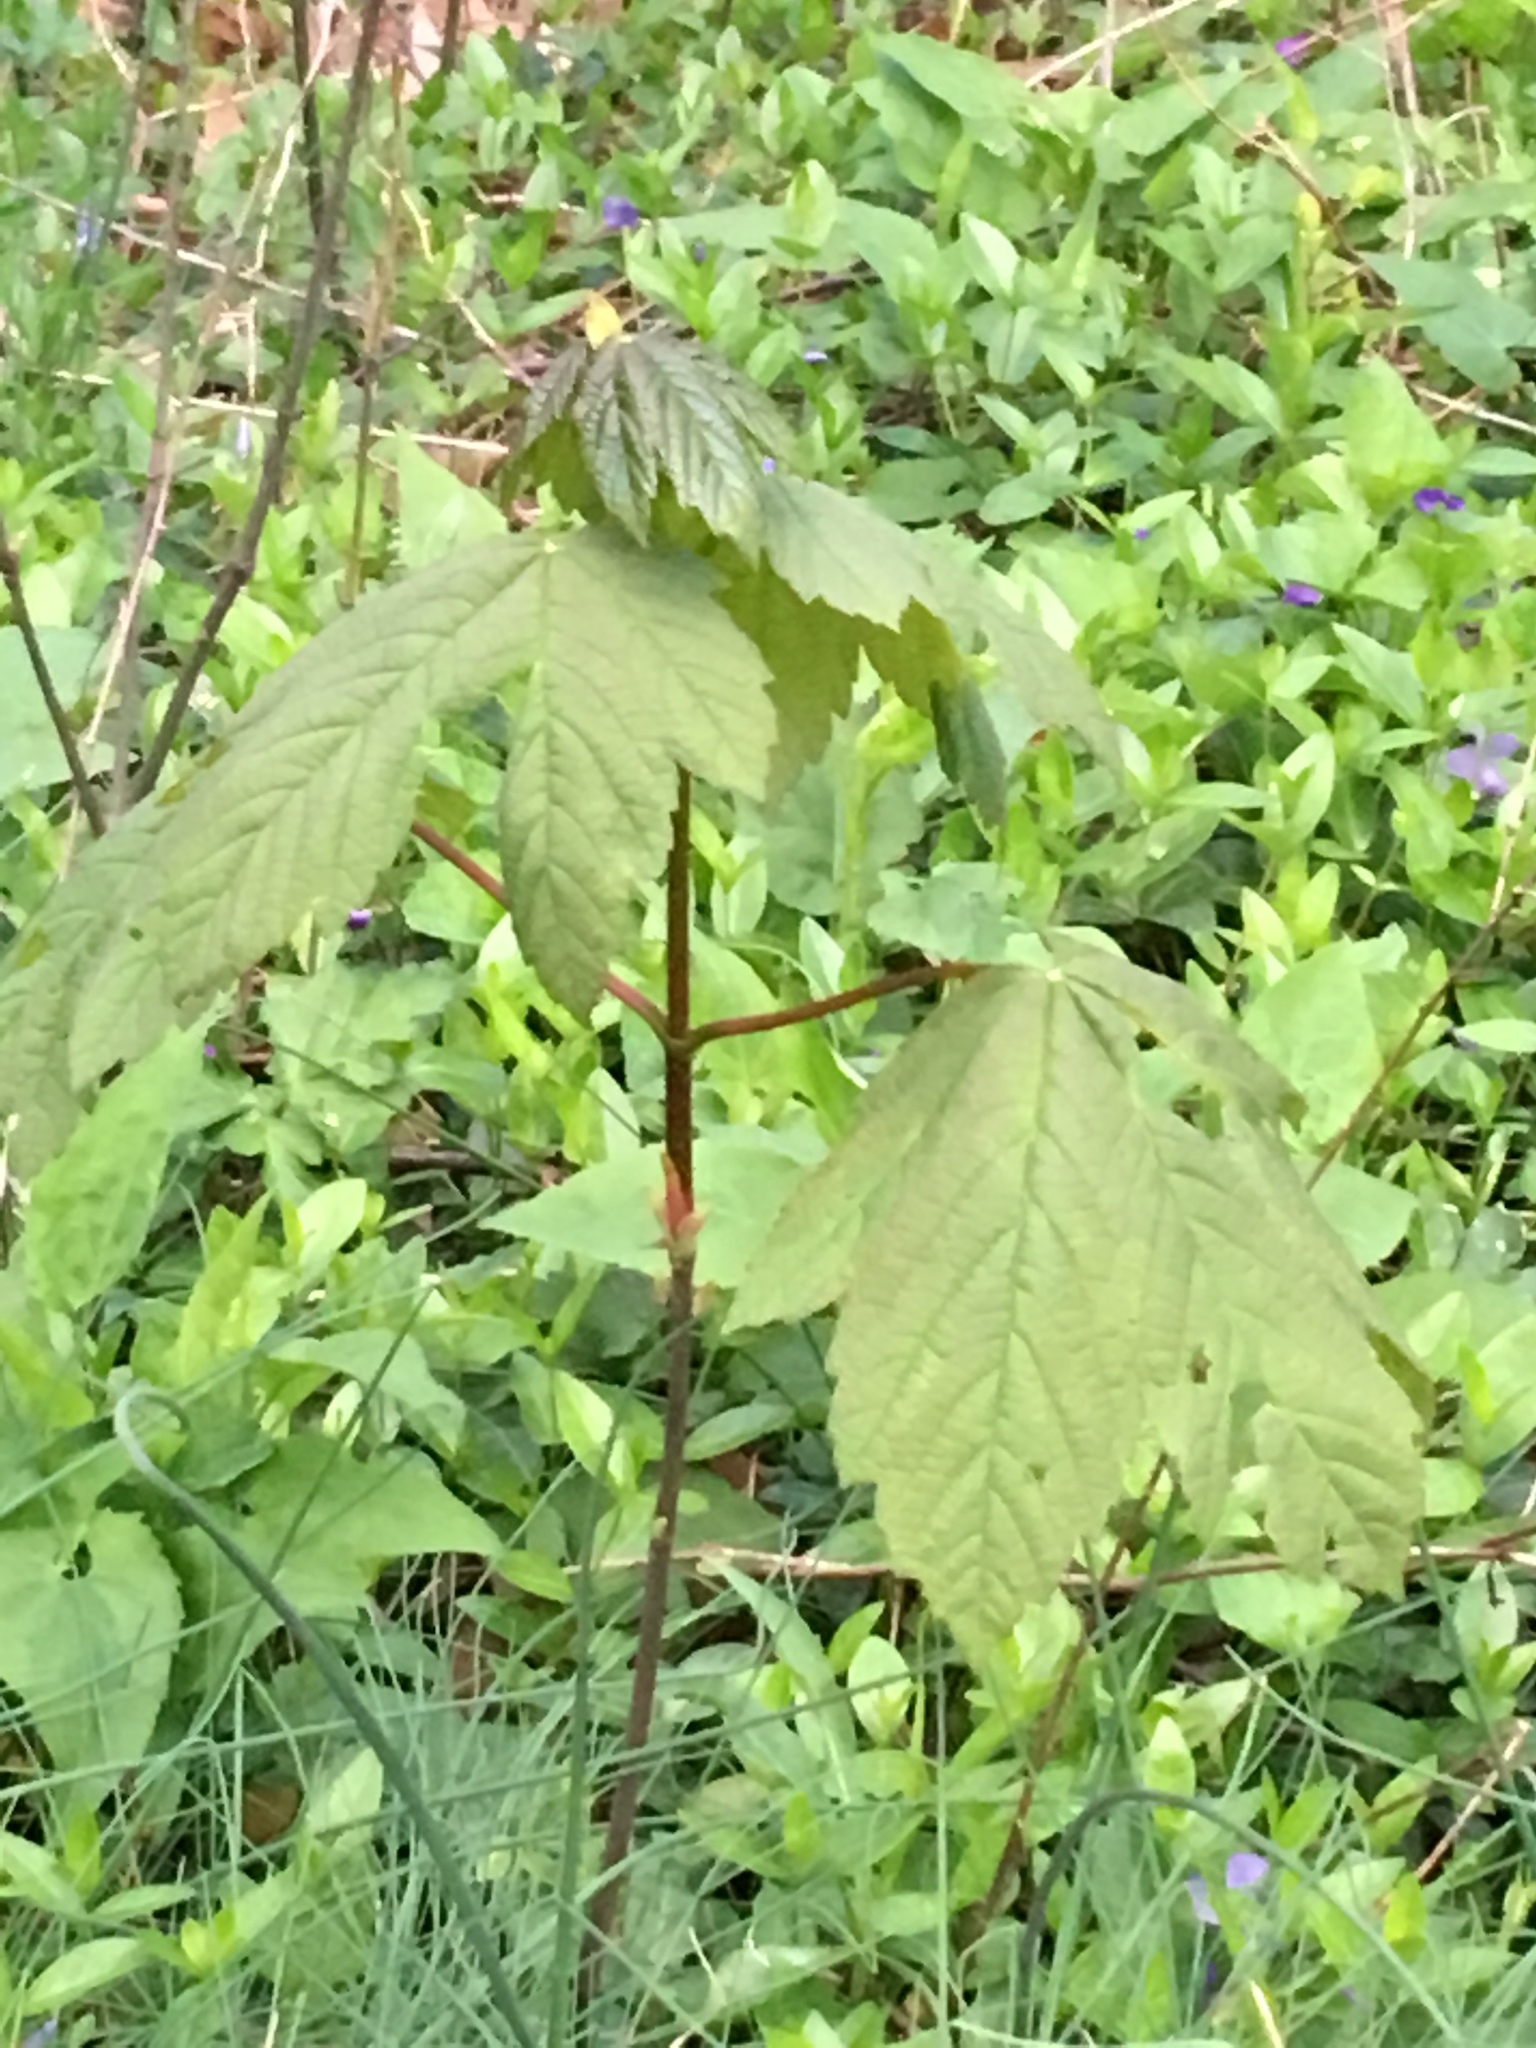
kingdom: Plantae
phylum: Tracheophyta
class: Magnoliopsida
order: Sapindales
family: Sapindaceae
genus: Acer
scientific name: Acer pseudoplatanus
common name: Sycamore
